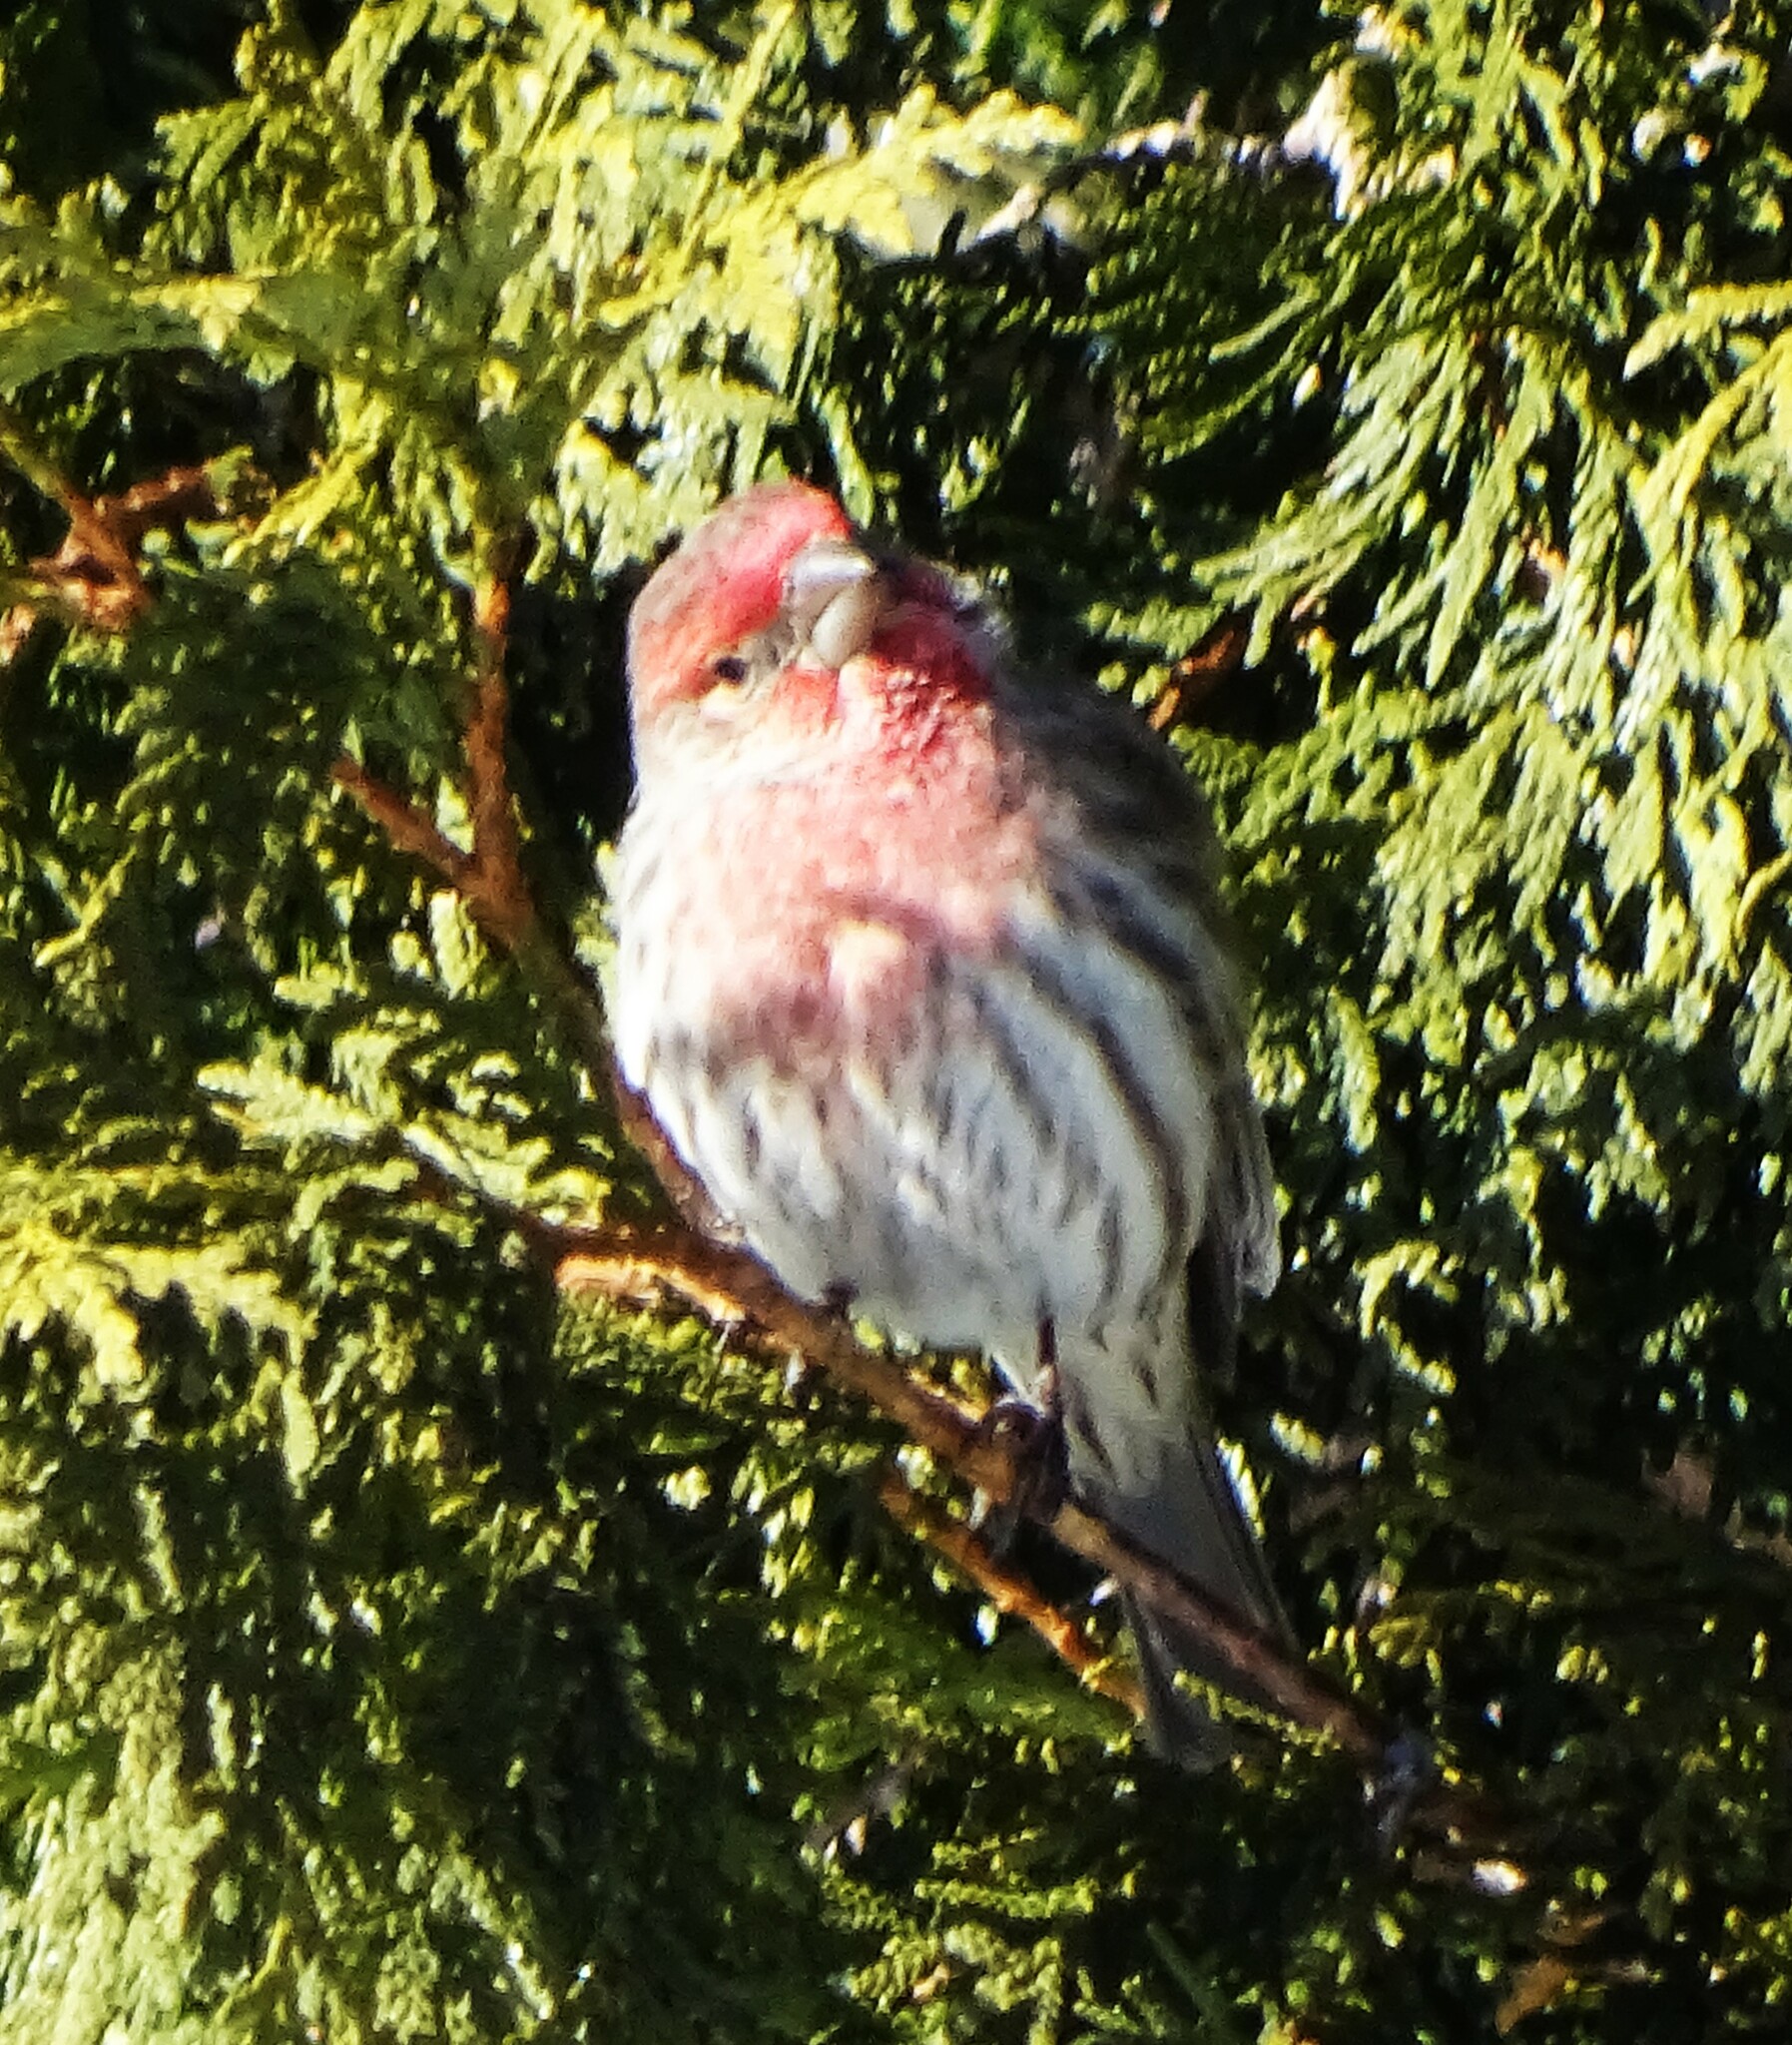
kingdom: Animalia
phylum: Chordata
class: Aves
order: Passeriformes
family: Fringillidae
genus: Haemorhous
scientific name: Haemorhous mexicanus
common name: House finch
